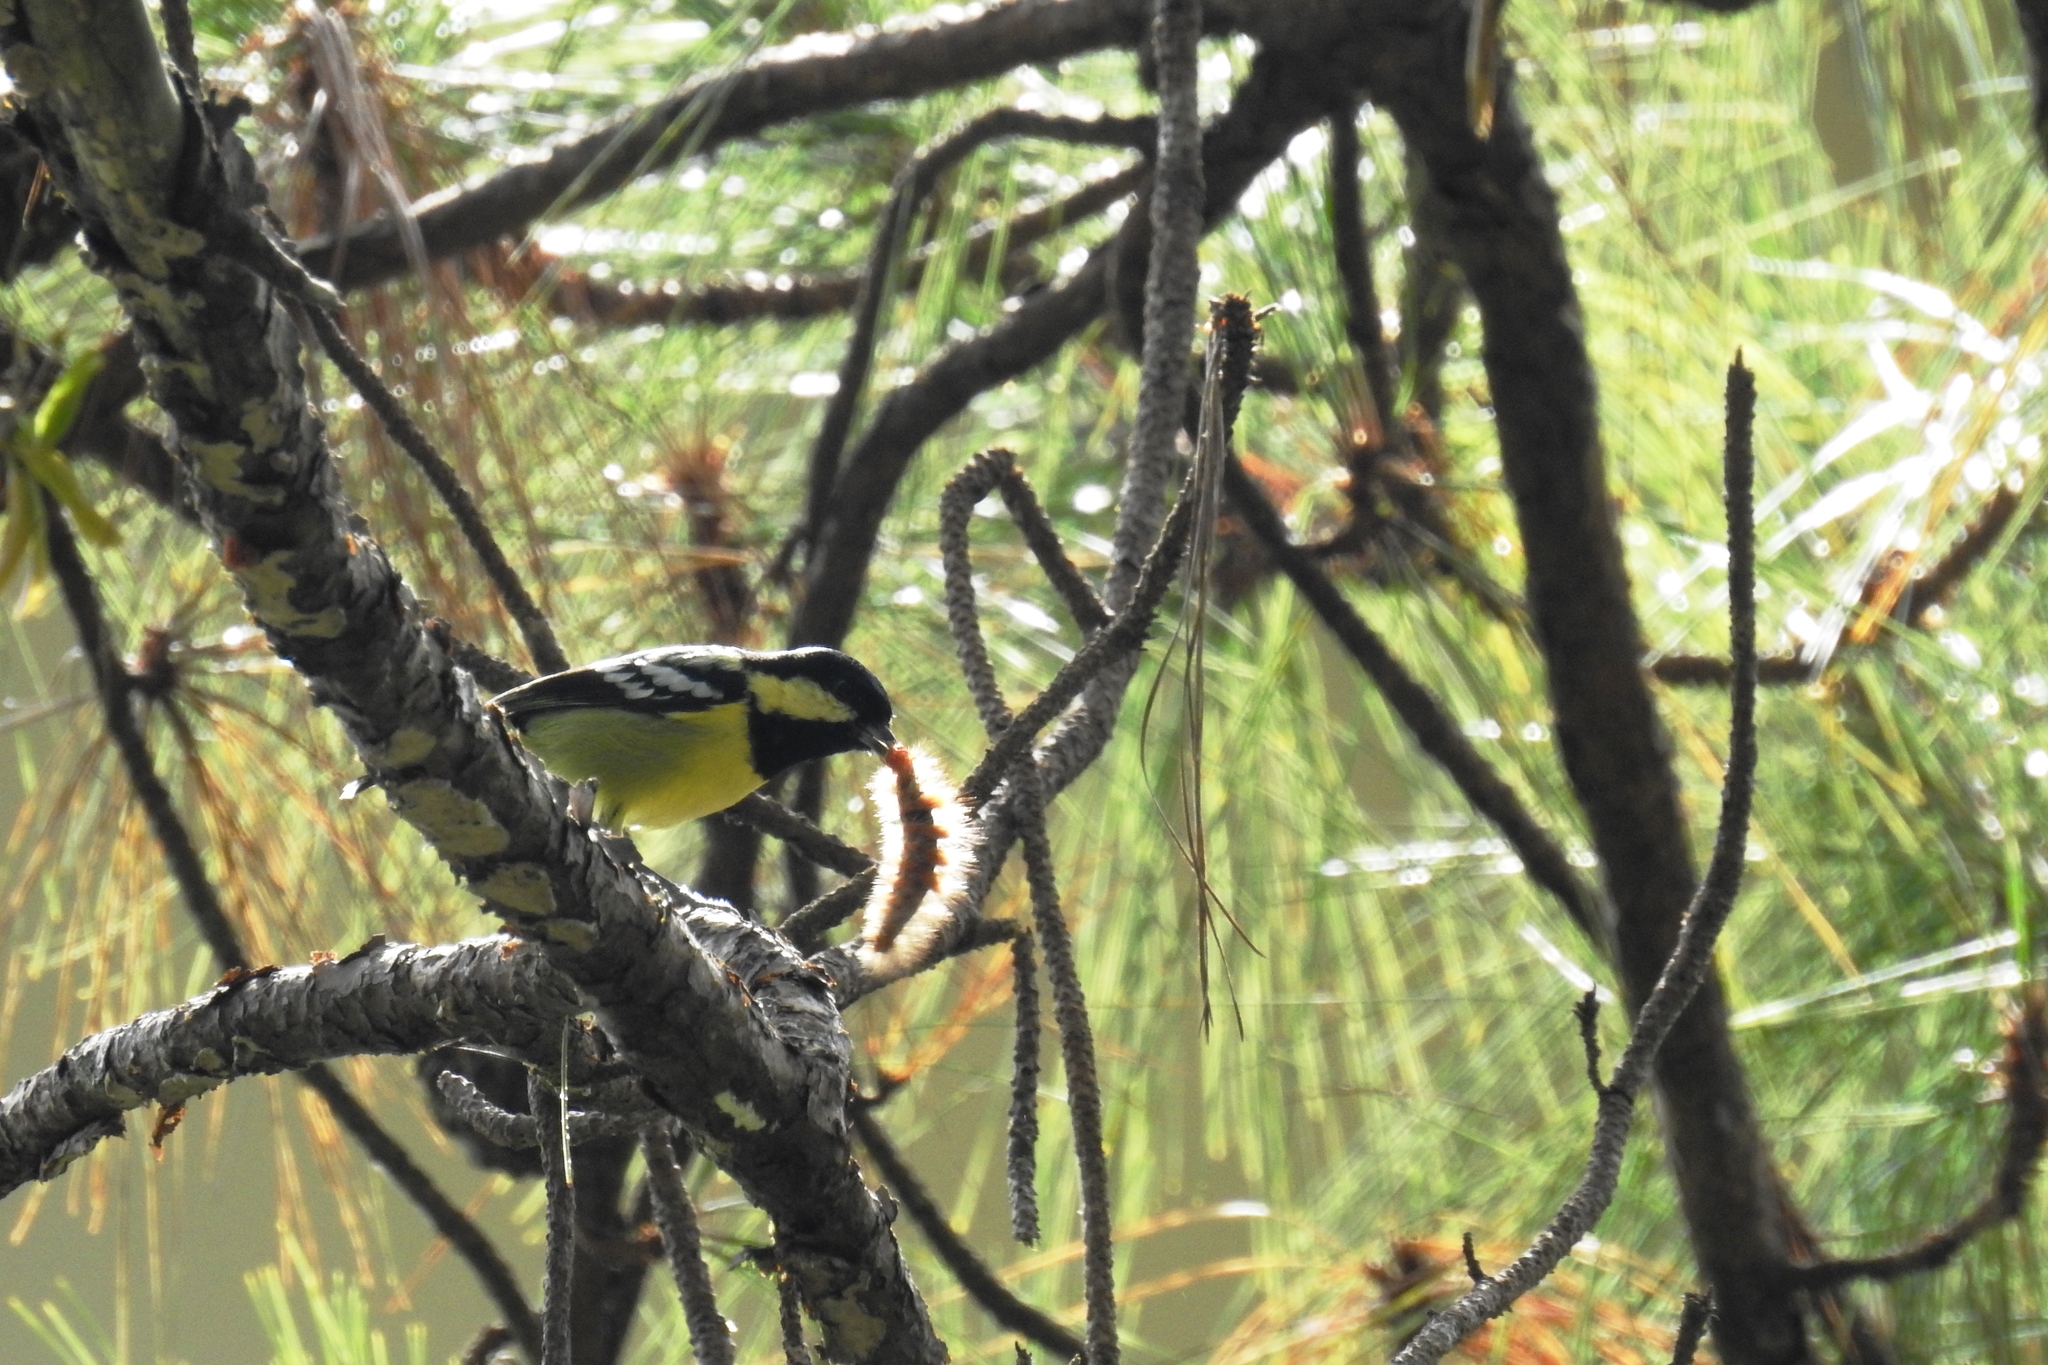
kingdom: Animalia
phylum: Chordata
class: Aves
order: Passeriformes
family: Paridae
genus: Periparus
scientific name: Periparus elegans
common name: Elegant tit
